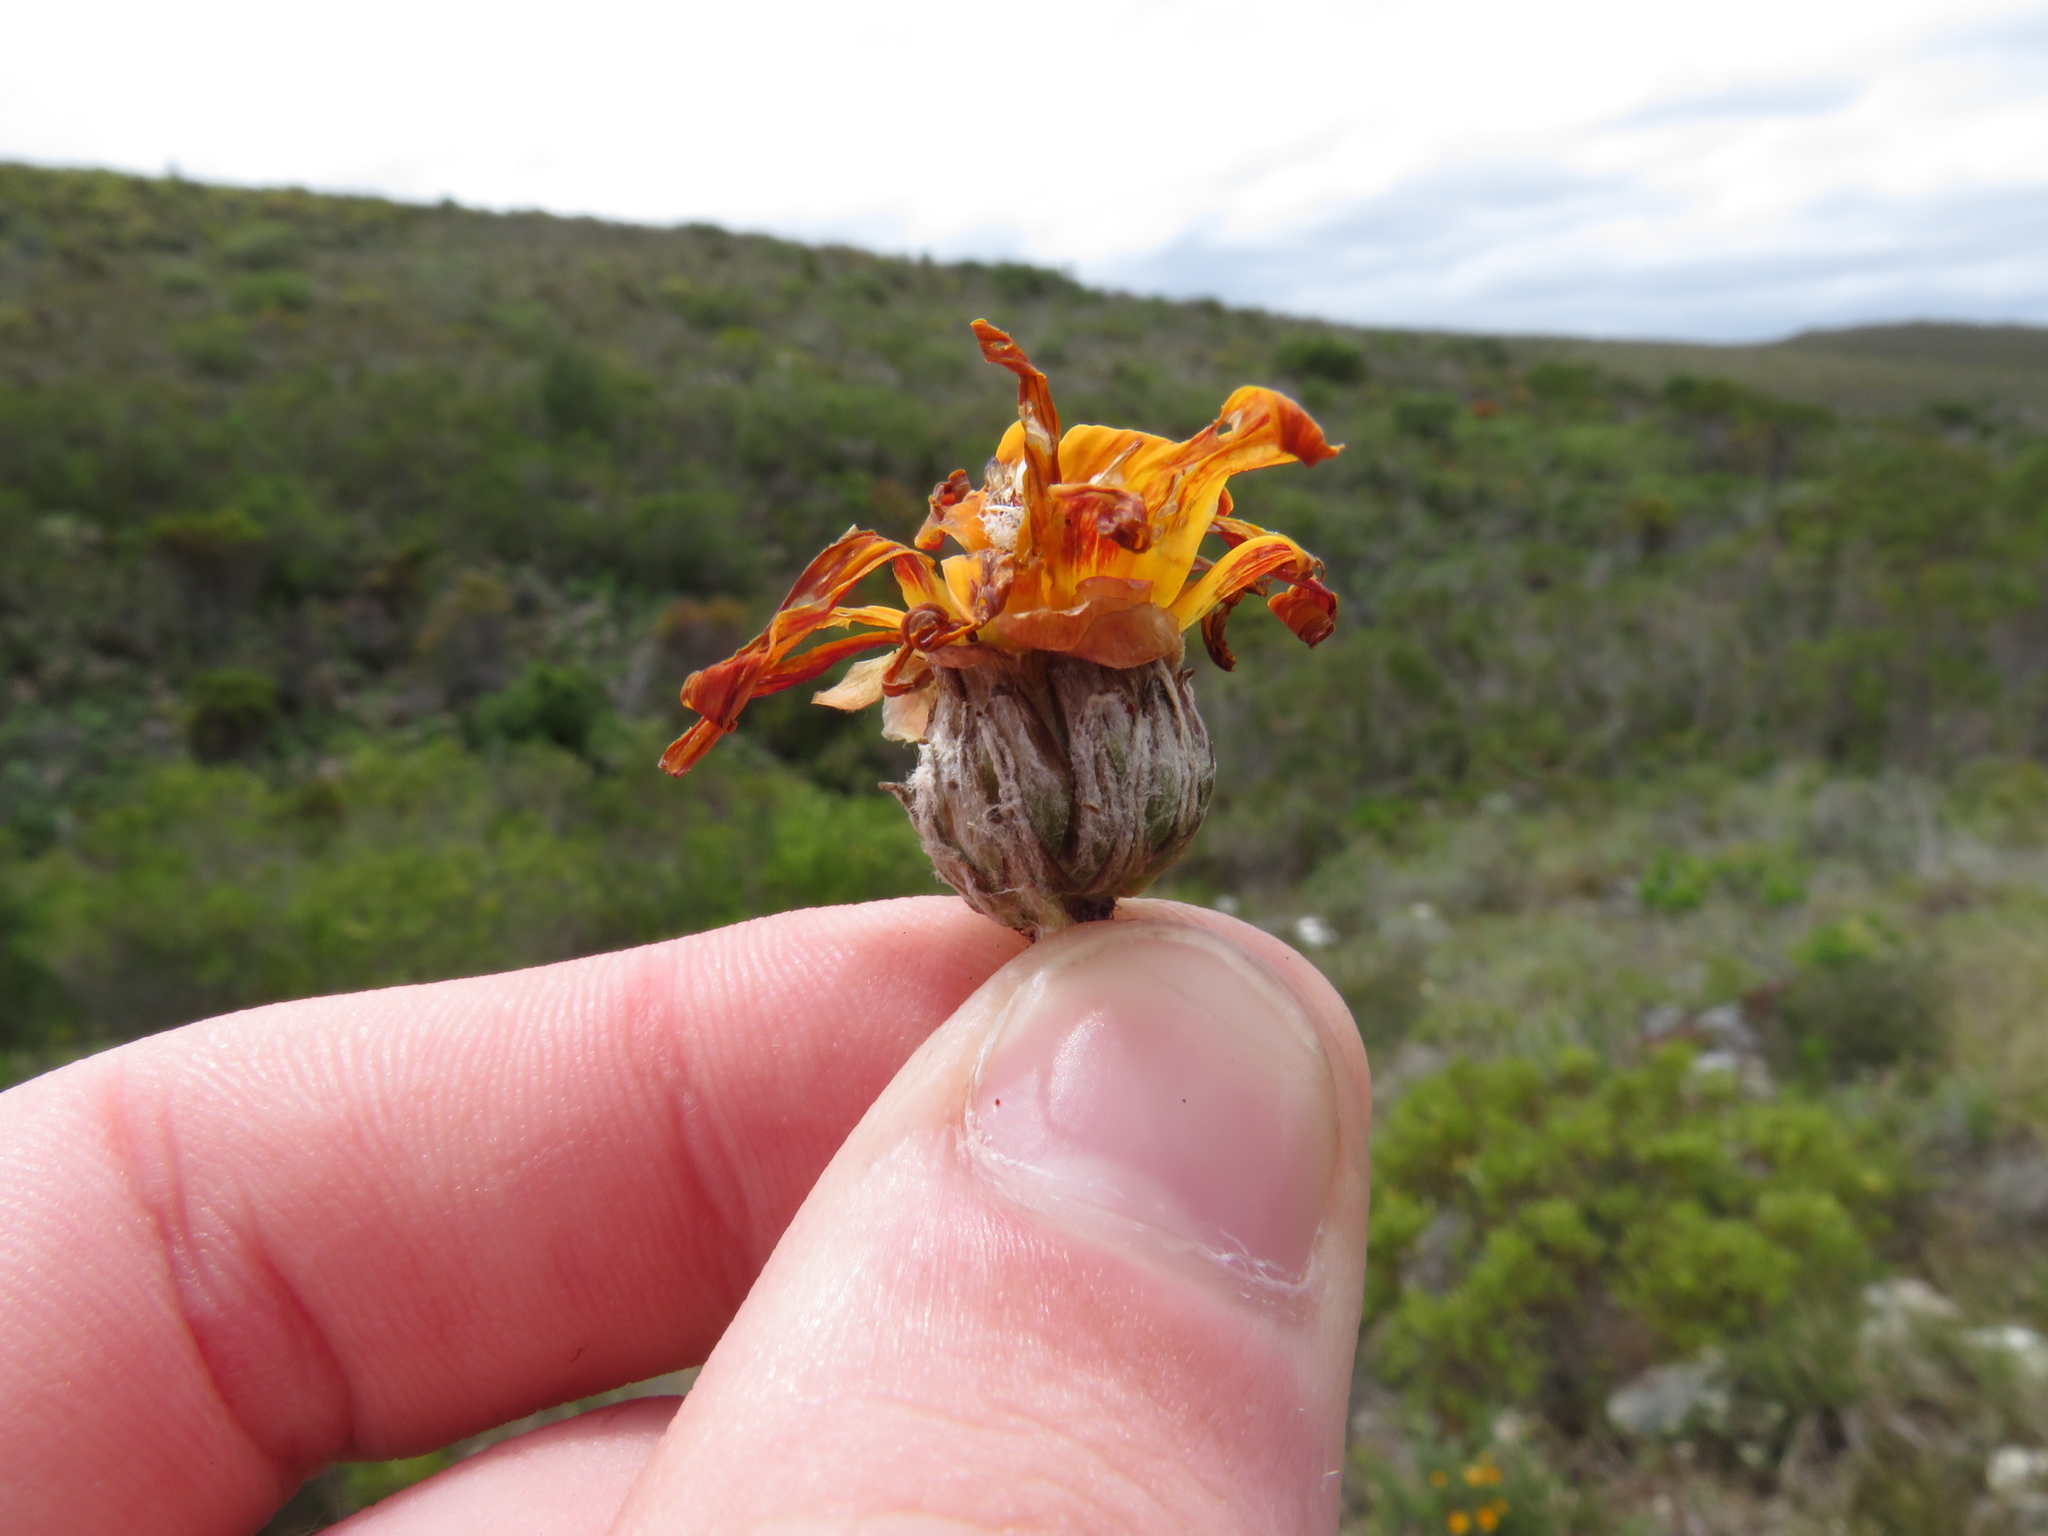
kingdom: Plantae
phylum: Tracheophyta
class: Magnoliopsida
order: Asterales
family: Asteraceae
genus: Arctotis
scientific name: Arctotis acaulis
